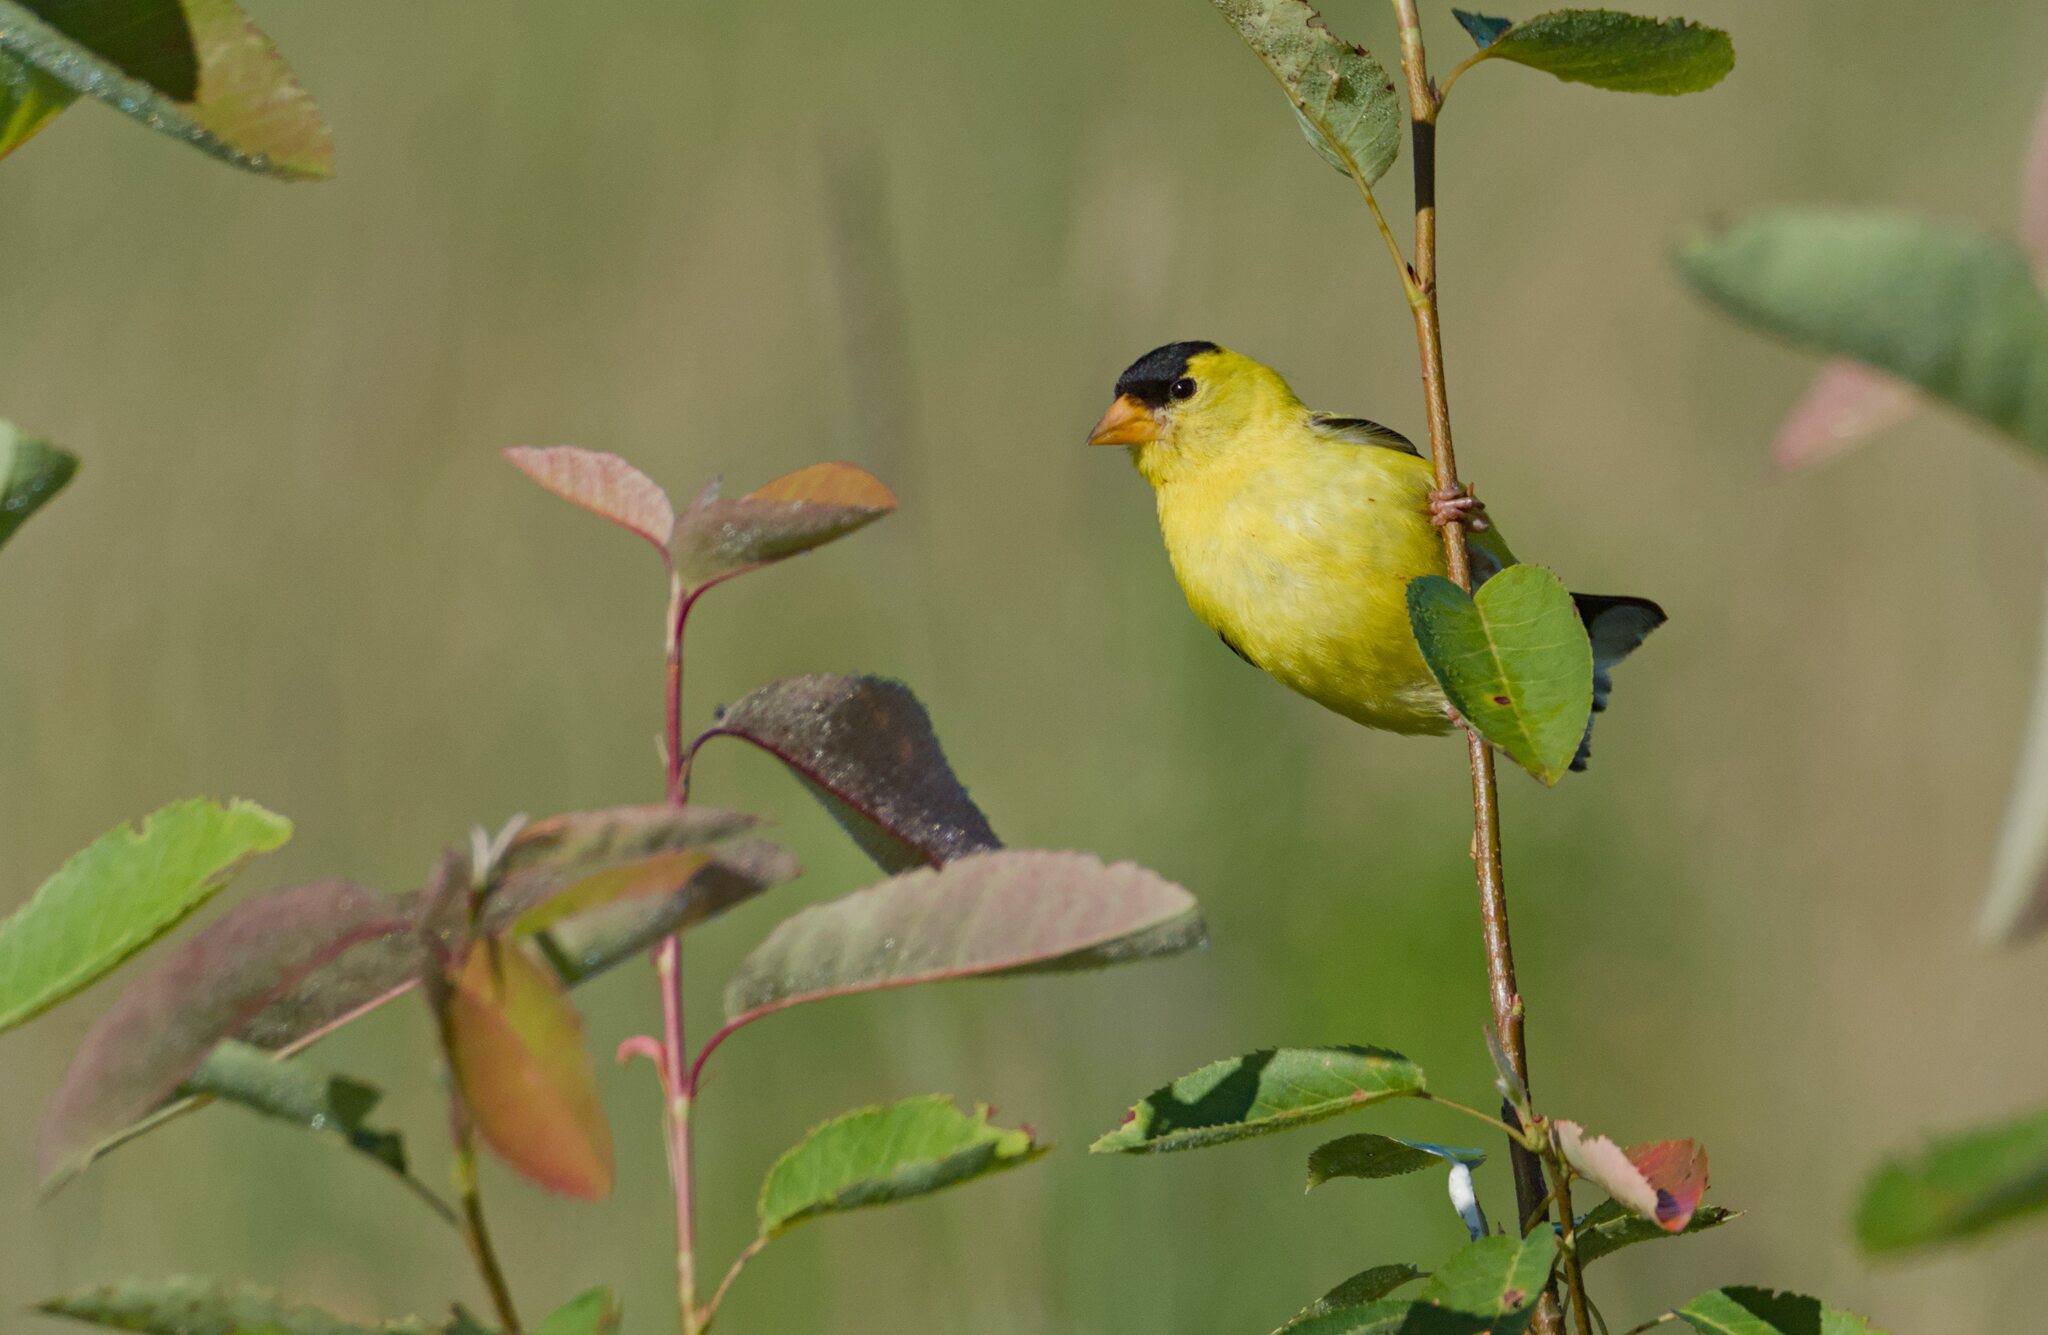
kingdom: Animalia
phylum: Chordata
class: Aves
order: Passeriformes
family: Fringillidae
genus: Spinus
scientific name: Spinus tristis
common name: American goldfinch
